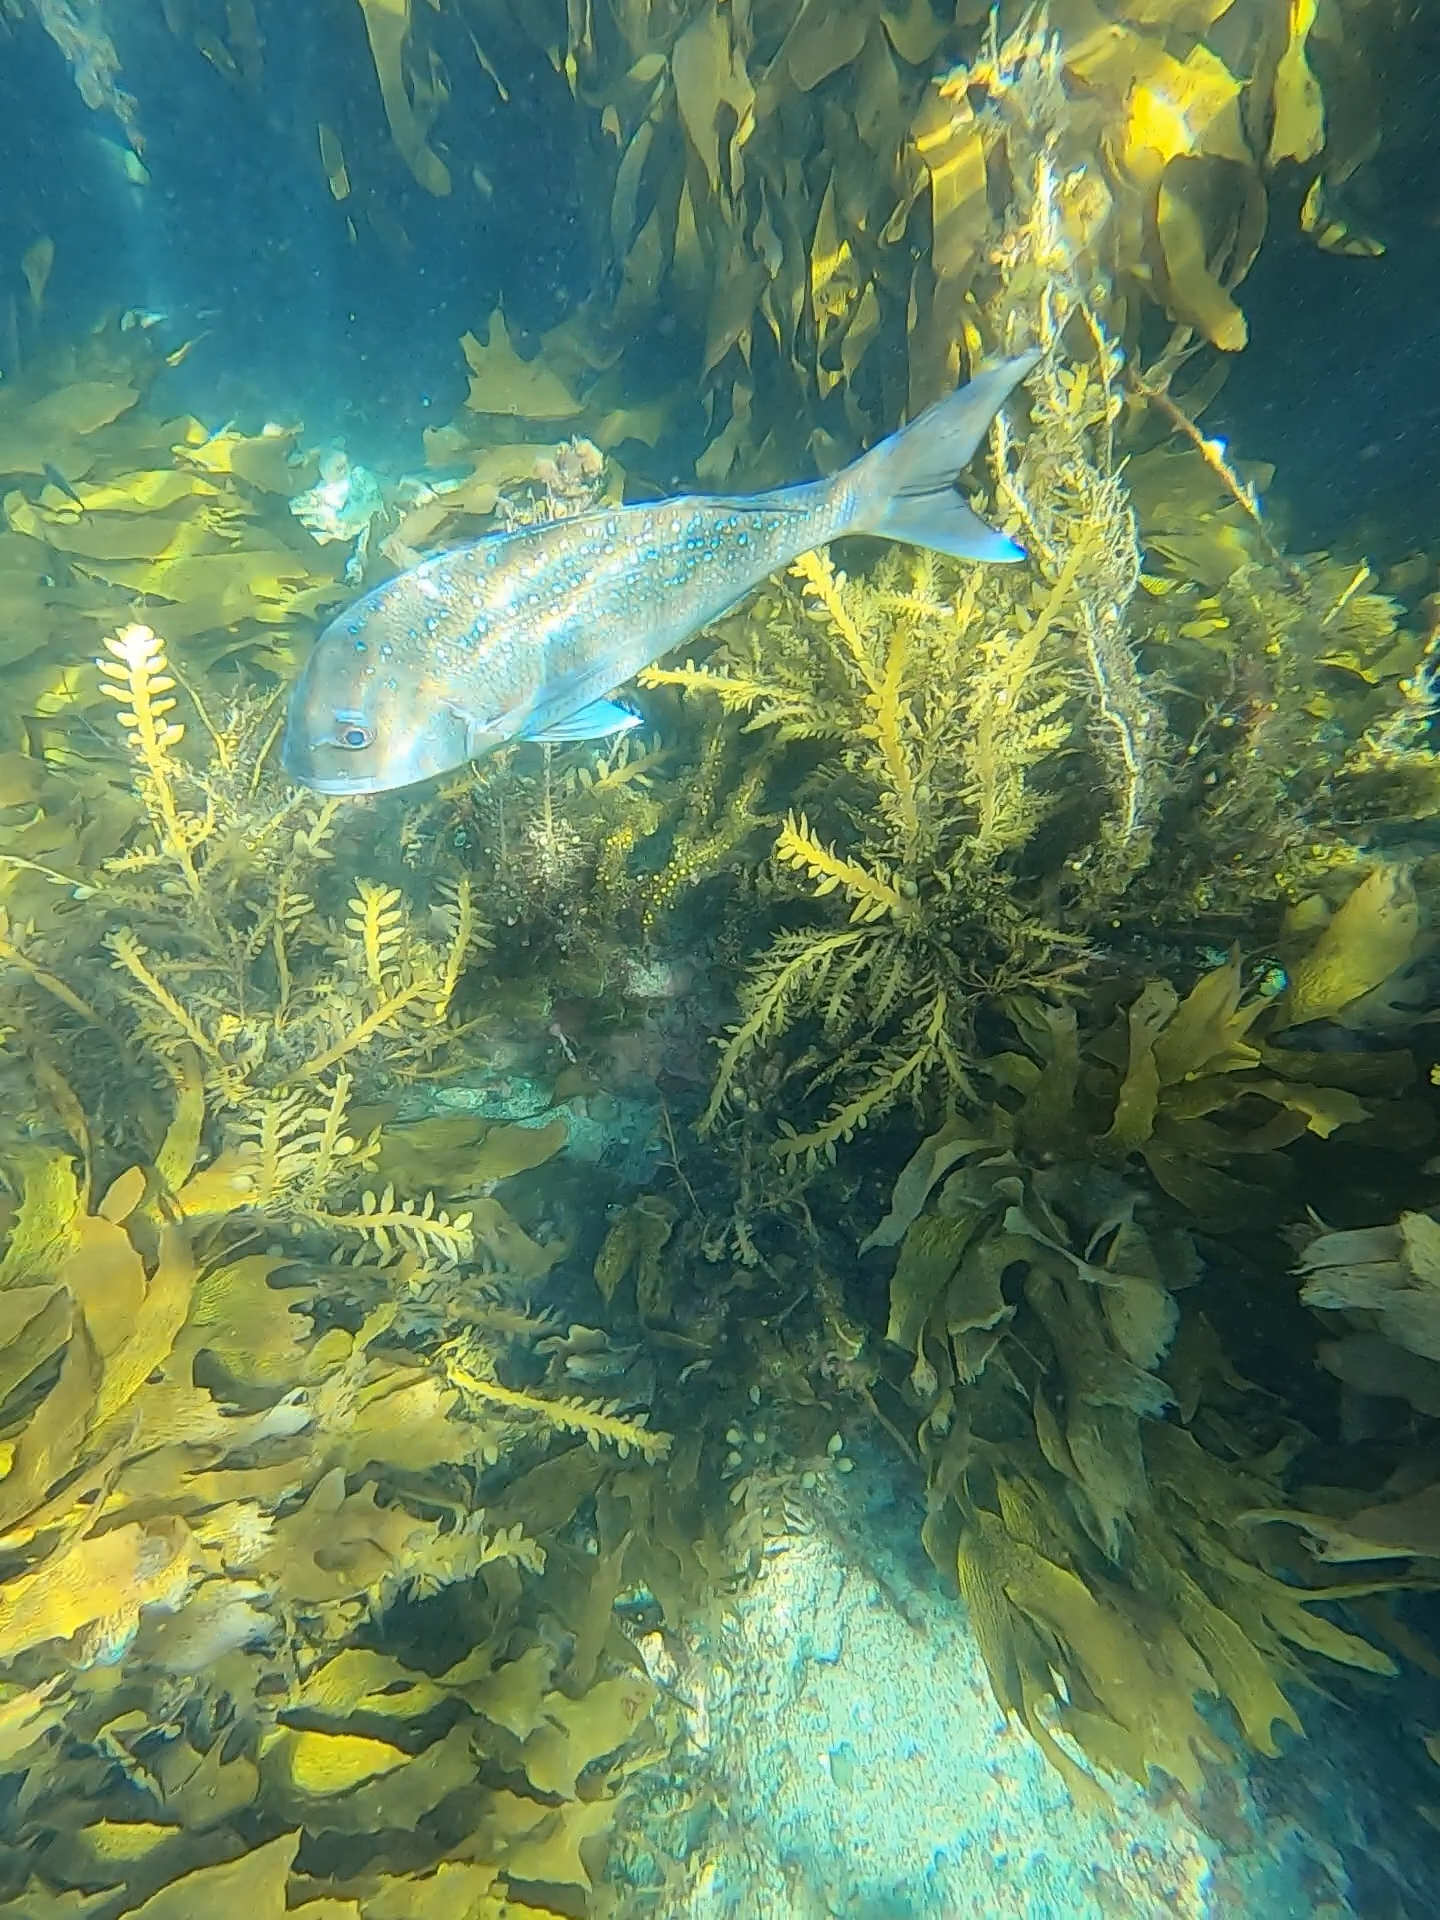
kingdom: Animalia
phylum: Chordata
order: Perciformes
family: Sparidae
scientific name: Sparidae
